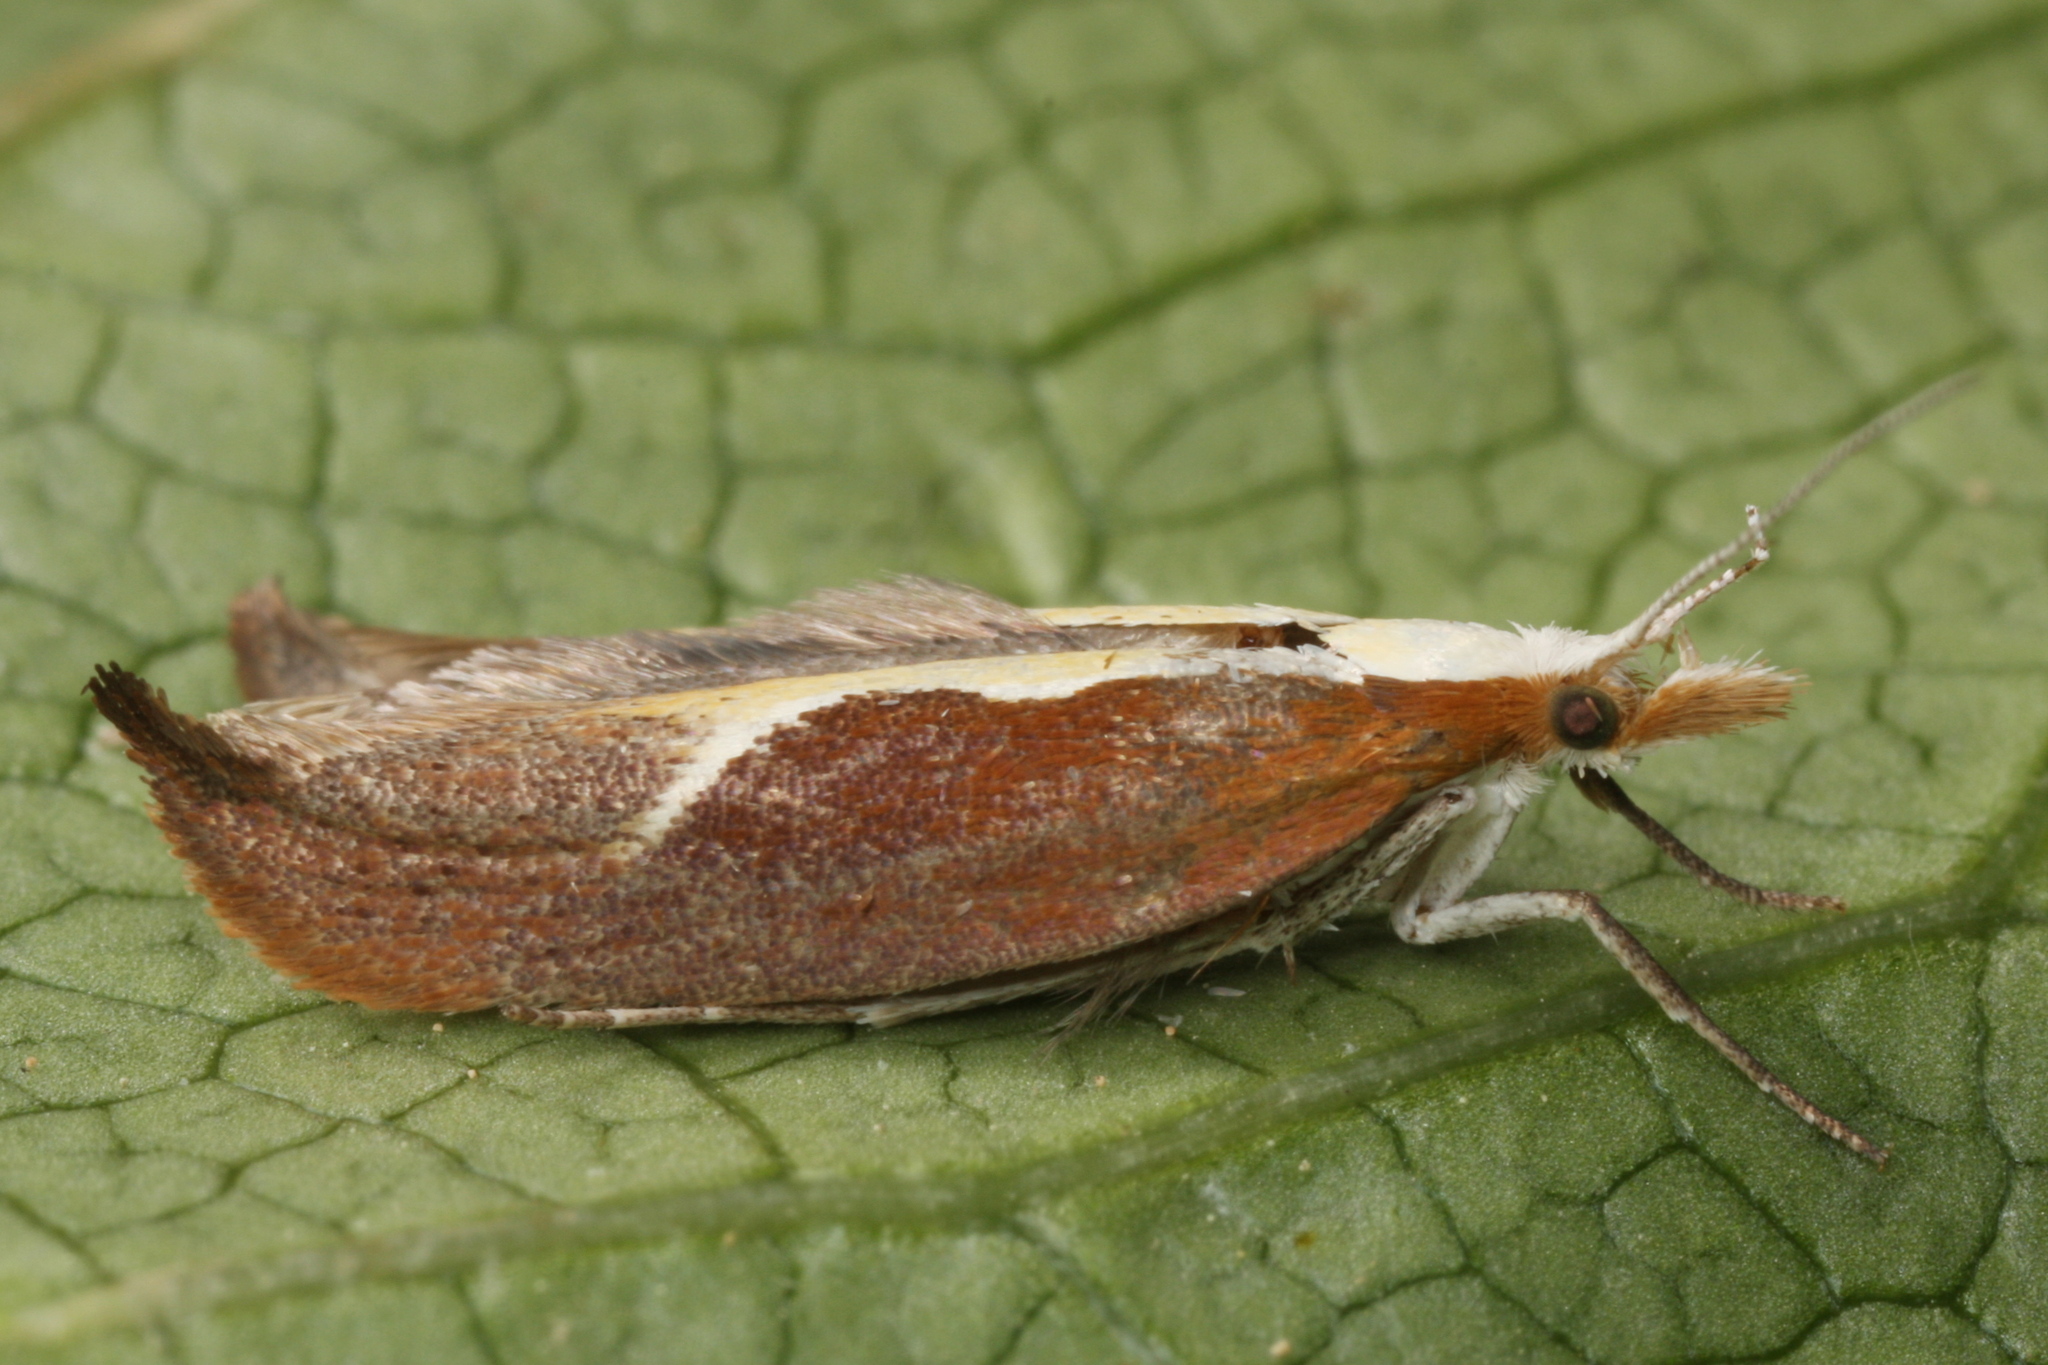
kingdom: Animalia
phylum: Arthropoda
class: Insecta
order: Lepidoptera
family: Ypsolophidae
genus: Ypsolopha
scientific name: Ypsolopha dentella
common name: Honeysuckle moth
